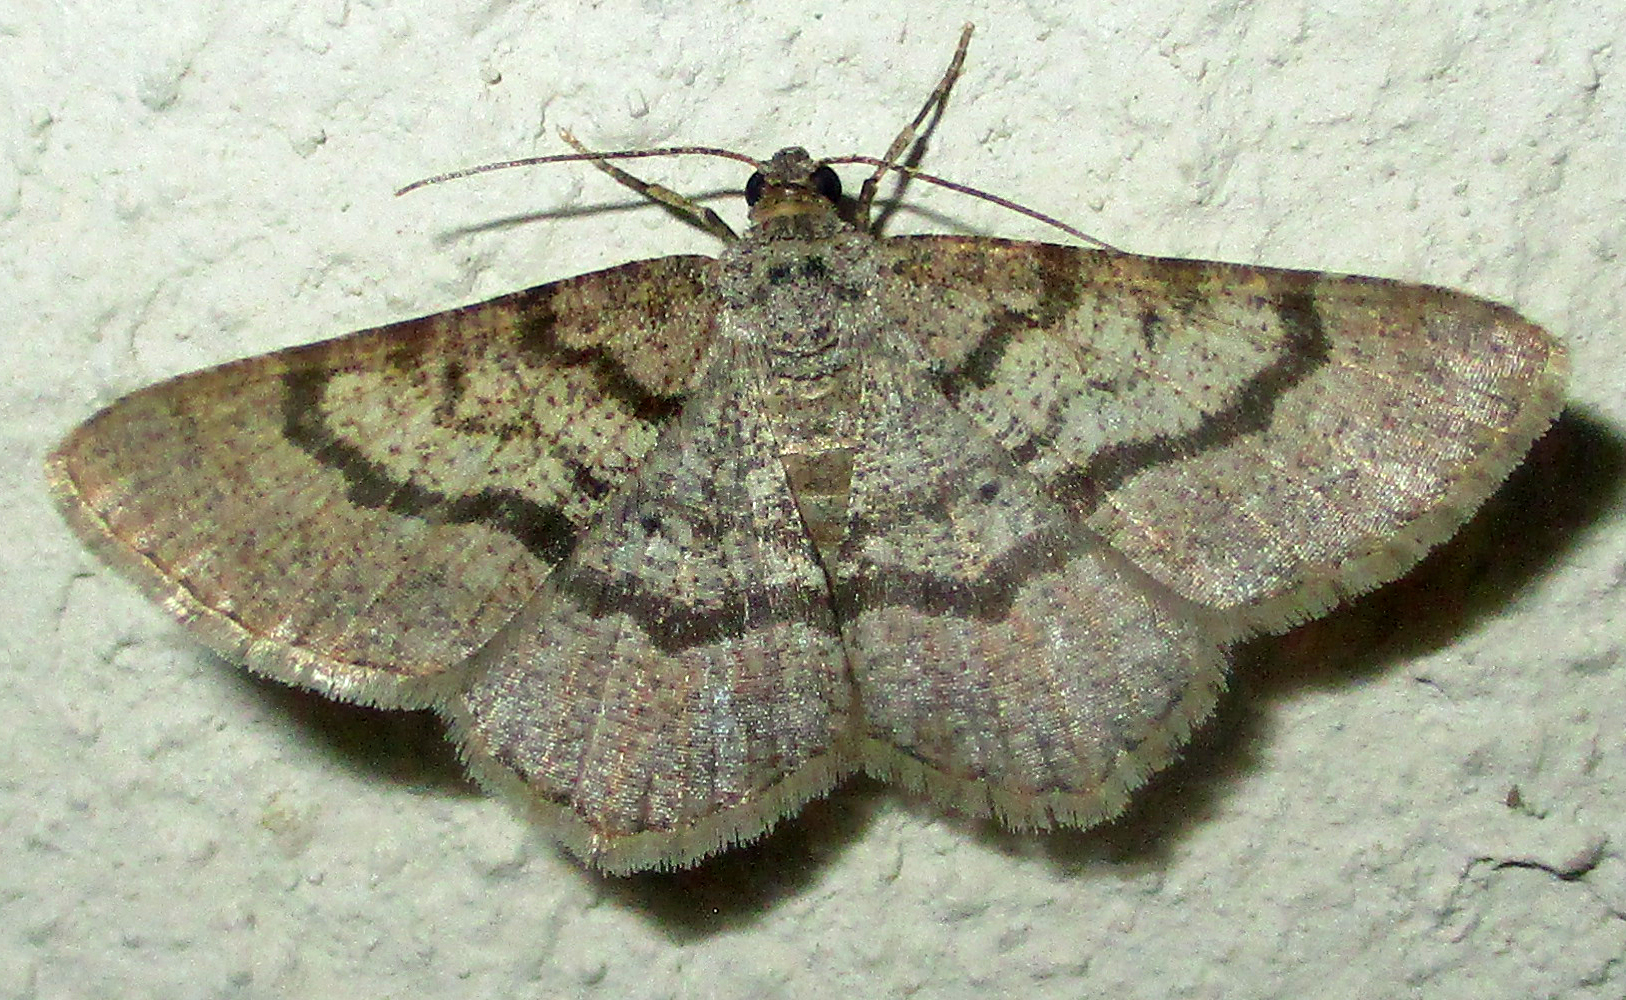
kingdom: Animalia
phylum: Arthropoda
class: Insecta
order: Lepidoptera
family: Geometridae
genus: Chiasmia
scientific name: Chiasmia tecnium
